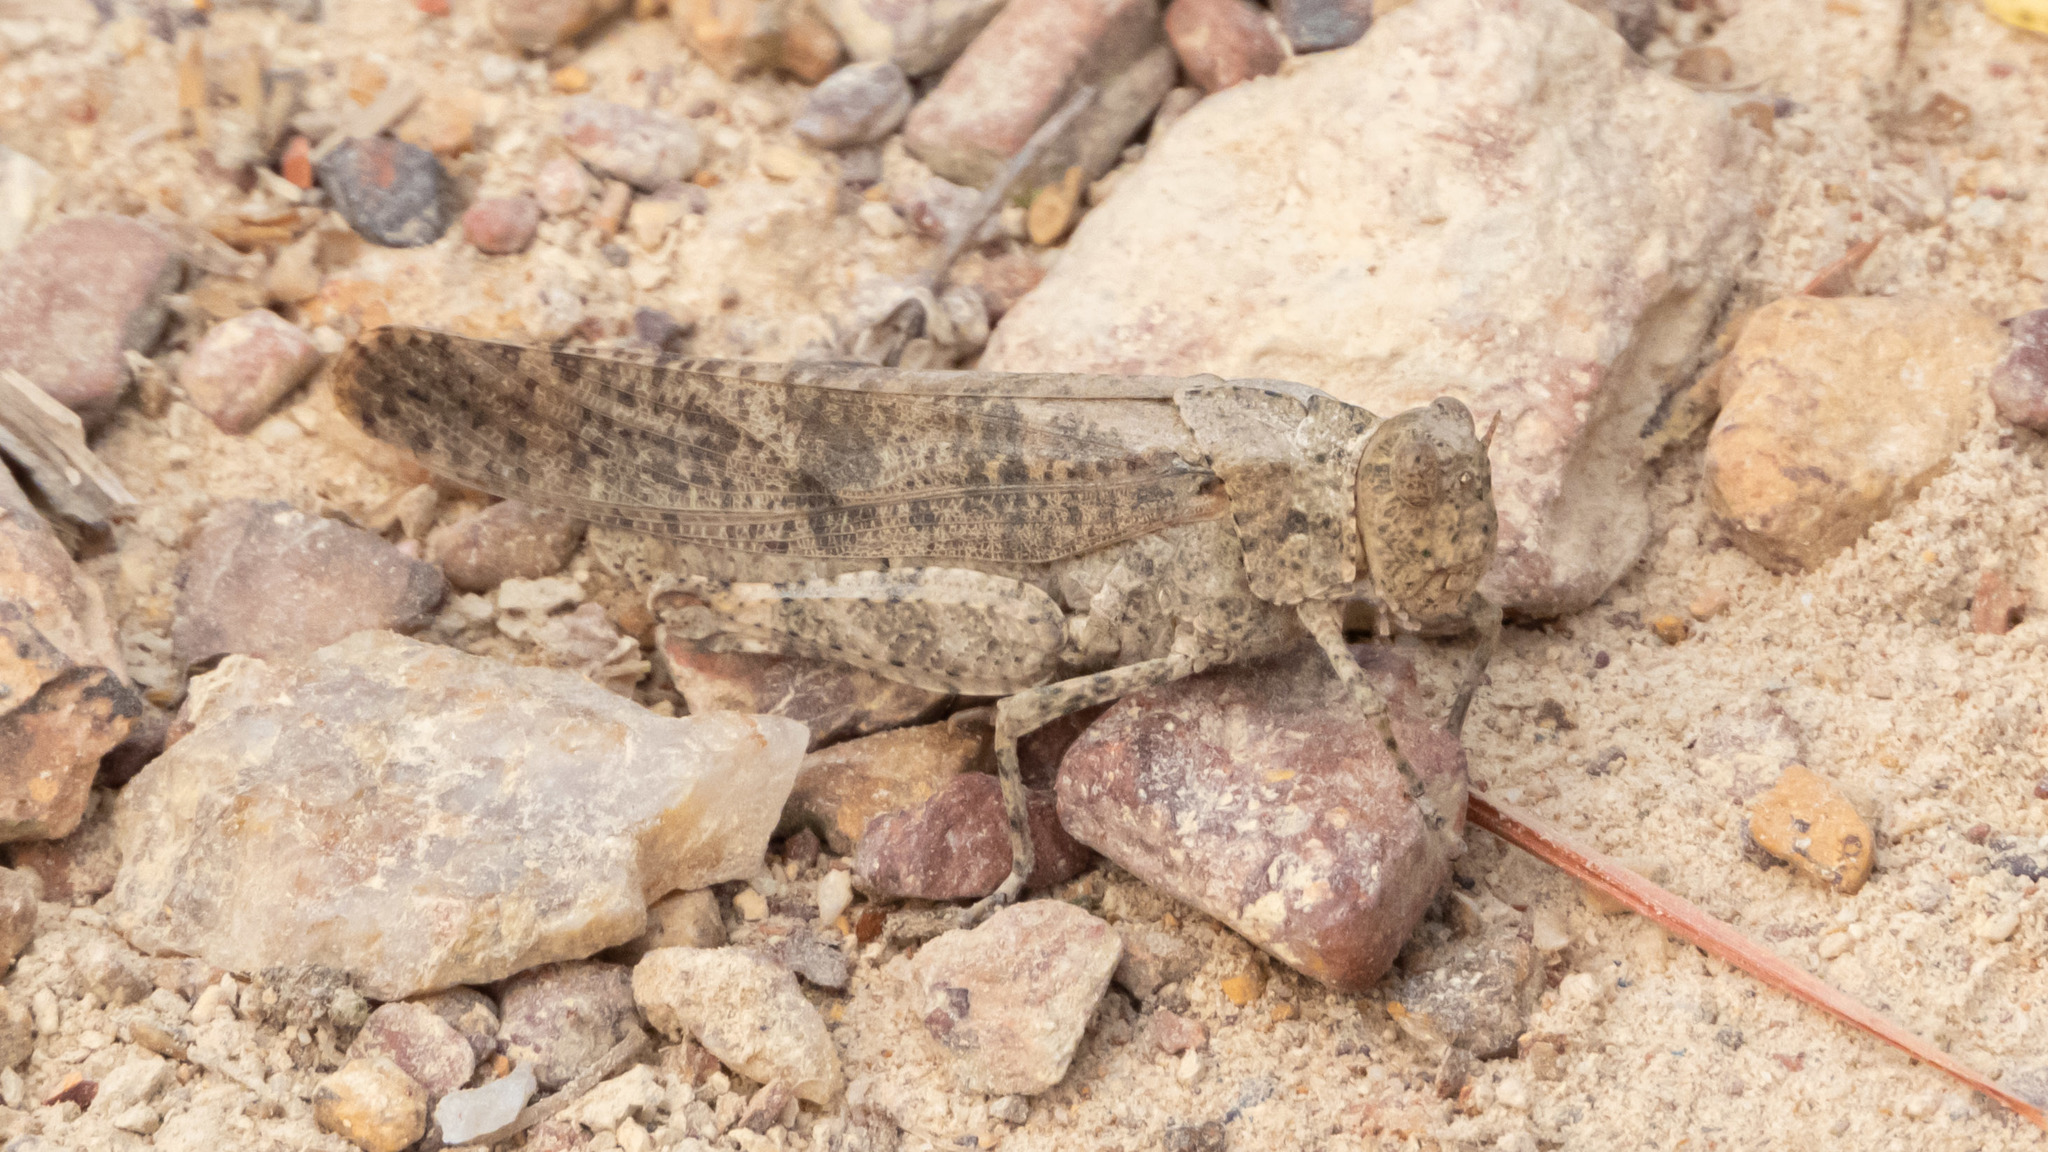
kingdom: Animalia
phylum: Arthropoda
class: Insecta
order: Orthoptera
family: Acrididae
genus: Dissosteira
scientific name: Dissosteira carolina
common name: Carolina grasshopper
